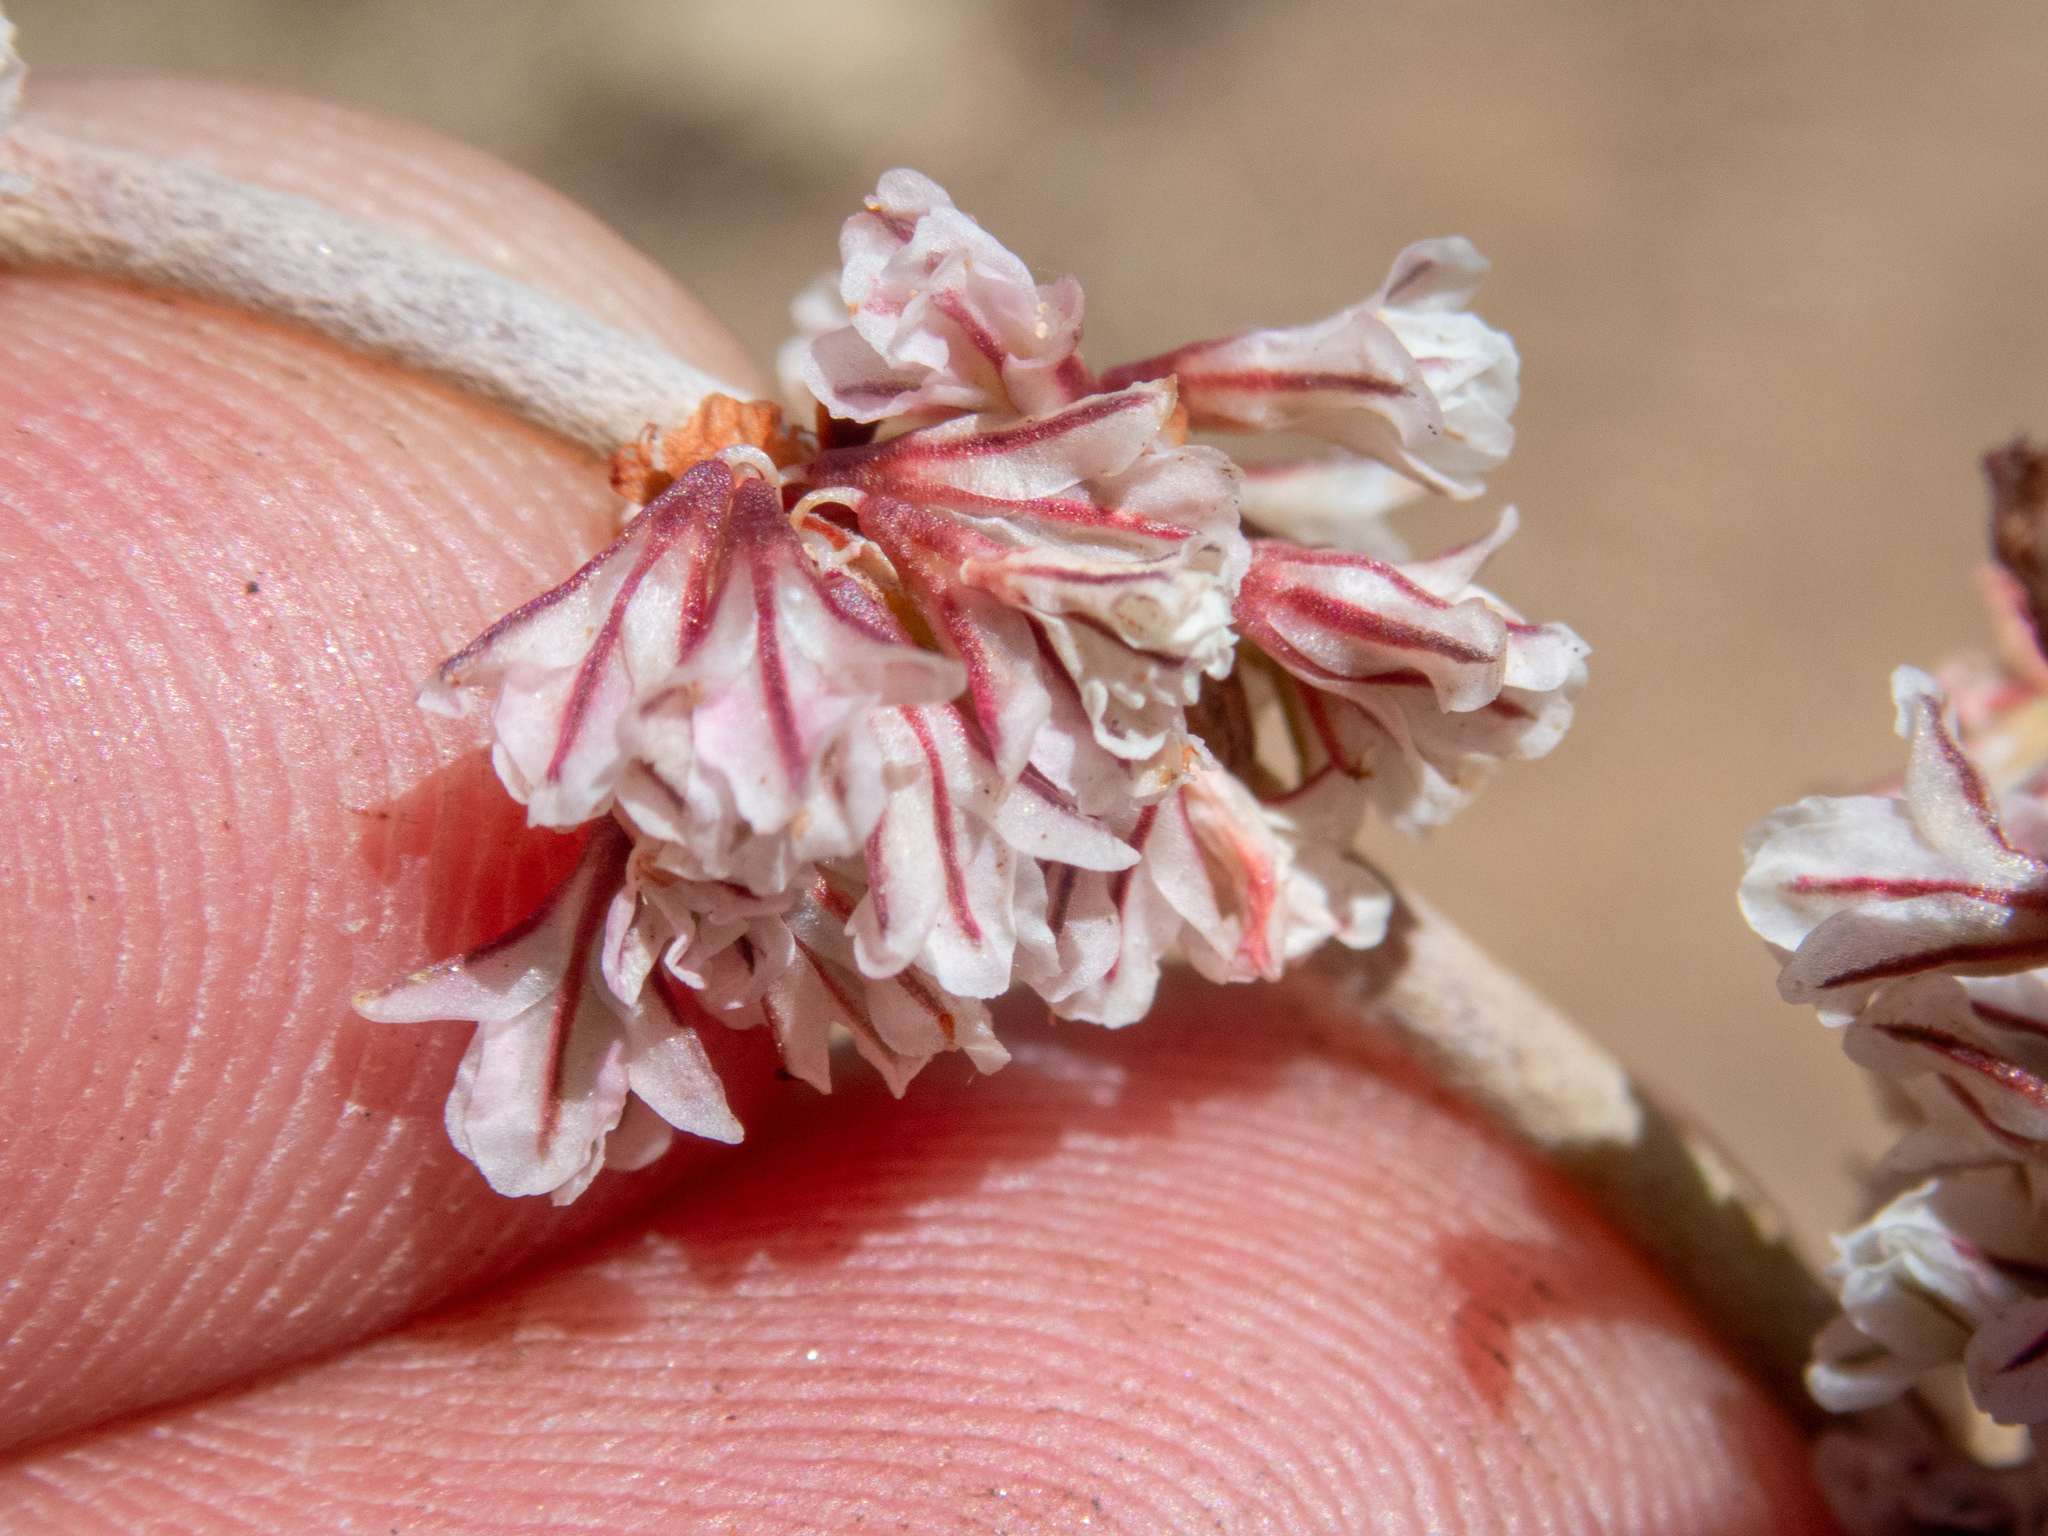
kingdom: Plantae
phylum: Tracheophyta
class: Magnoliopsida
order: Caryophyllales
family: Polygonaceae
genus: Eriogonum
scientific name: Eriogonum wrightii
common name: Bastard-sage
